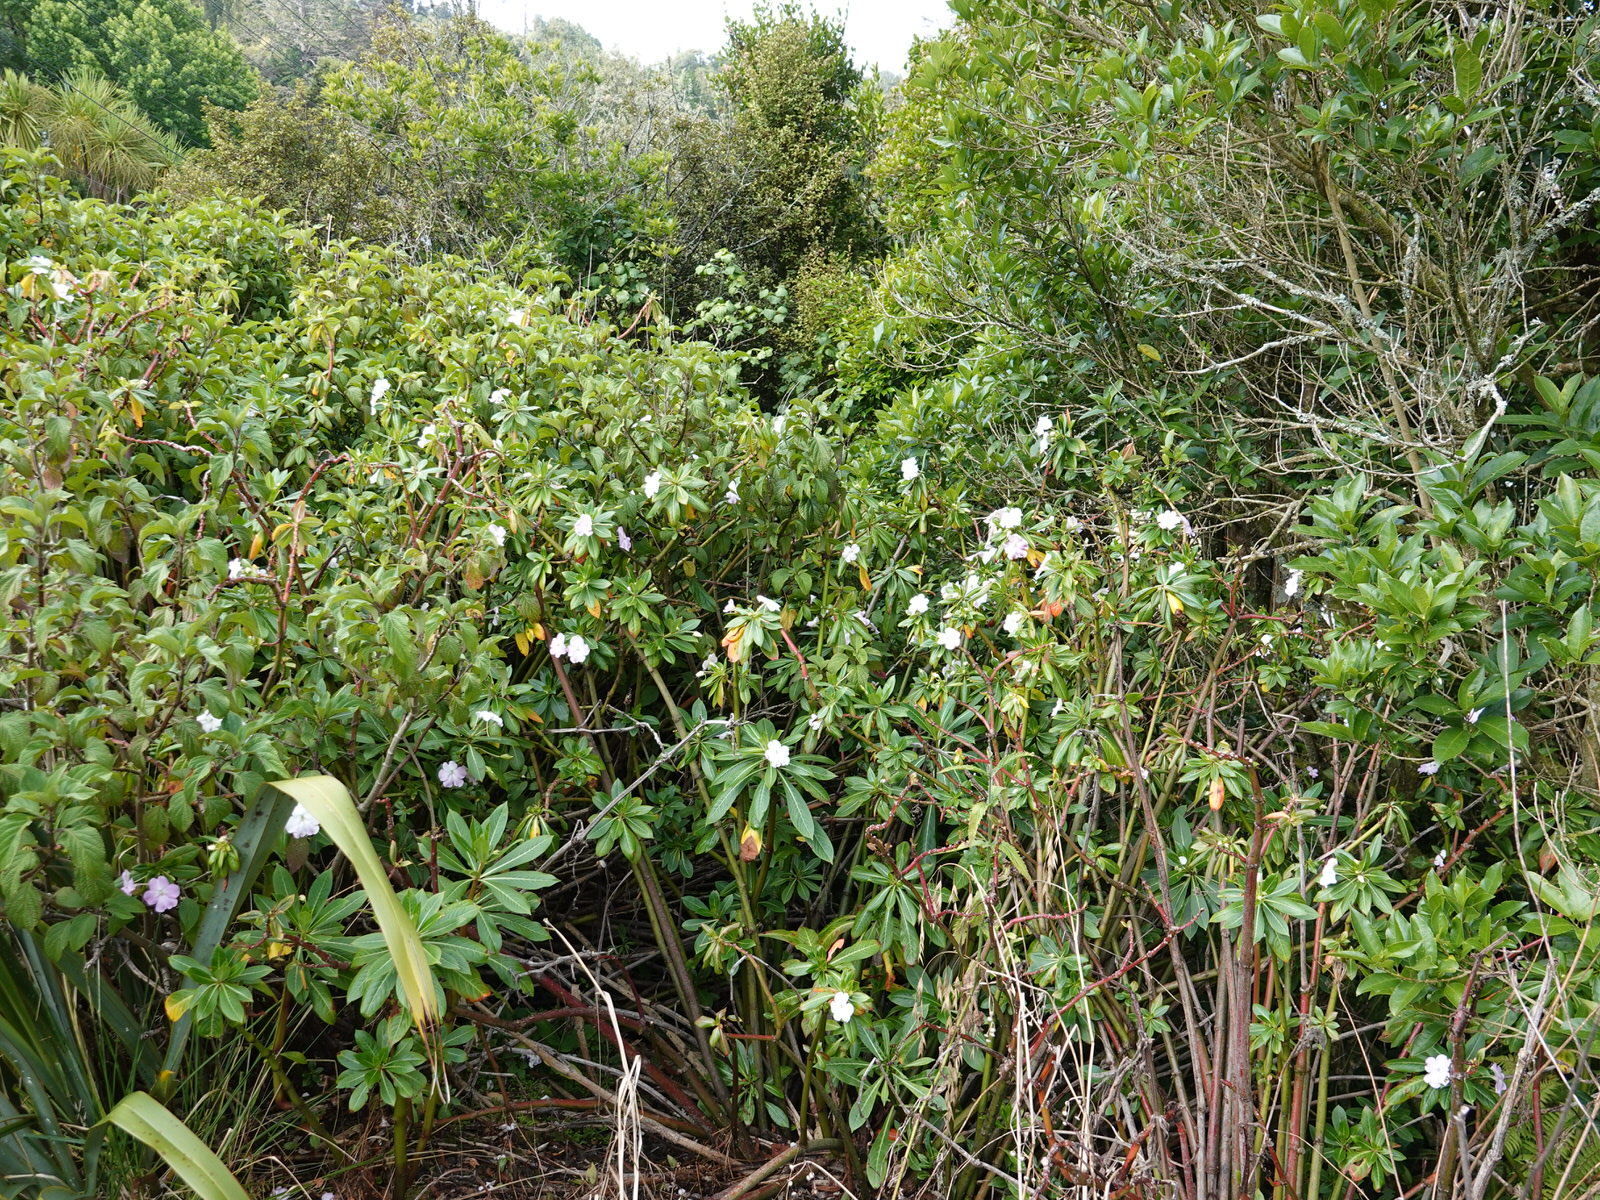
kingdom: Plantae
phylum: Tracheophyta
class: Magnoliopsida
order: Ericales
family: Balsaminaceae
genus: Impatiens
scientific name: Impatiens sodenii
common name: Oliver's touch-me-not
